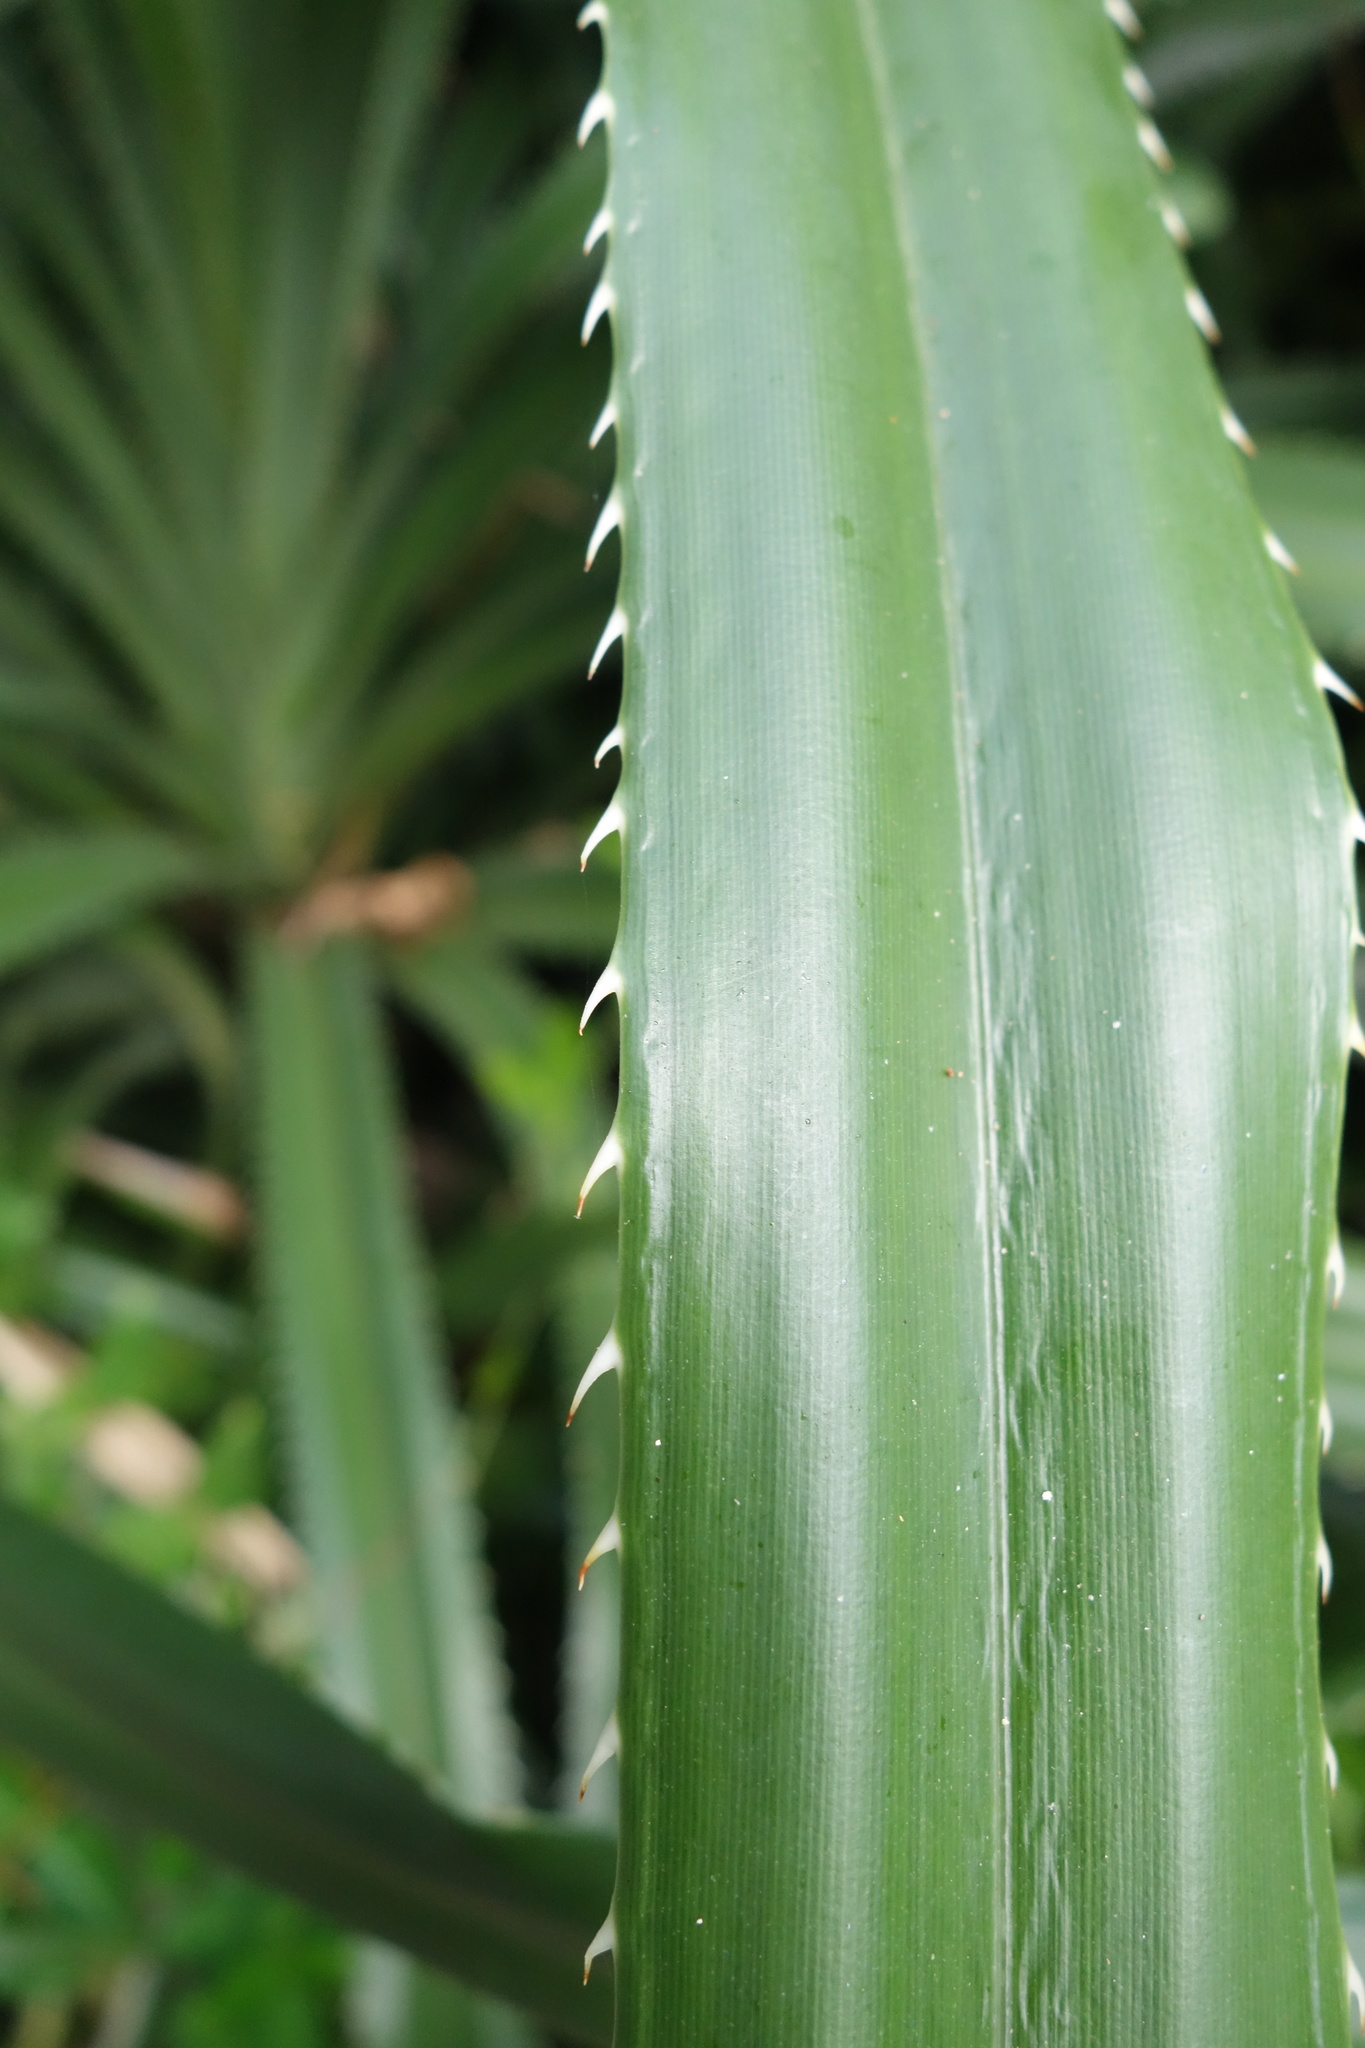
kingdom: Plantae
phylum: Tracheophyta
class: Liliopsida
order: Pandanales
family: Pandanaceae
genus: Pandanus
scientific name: Pandanus odorifer
